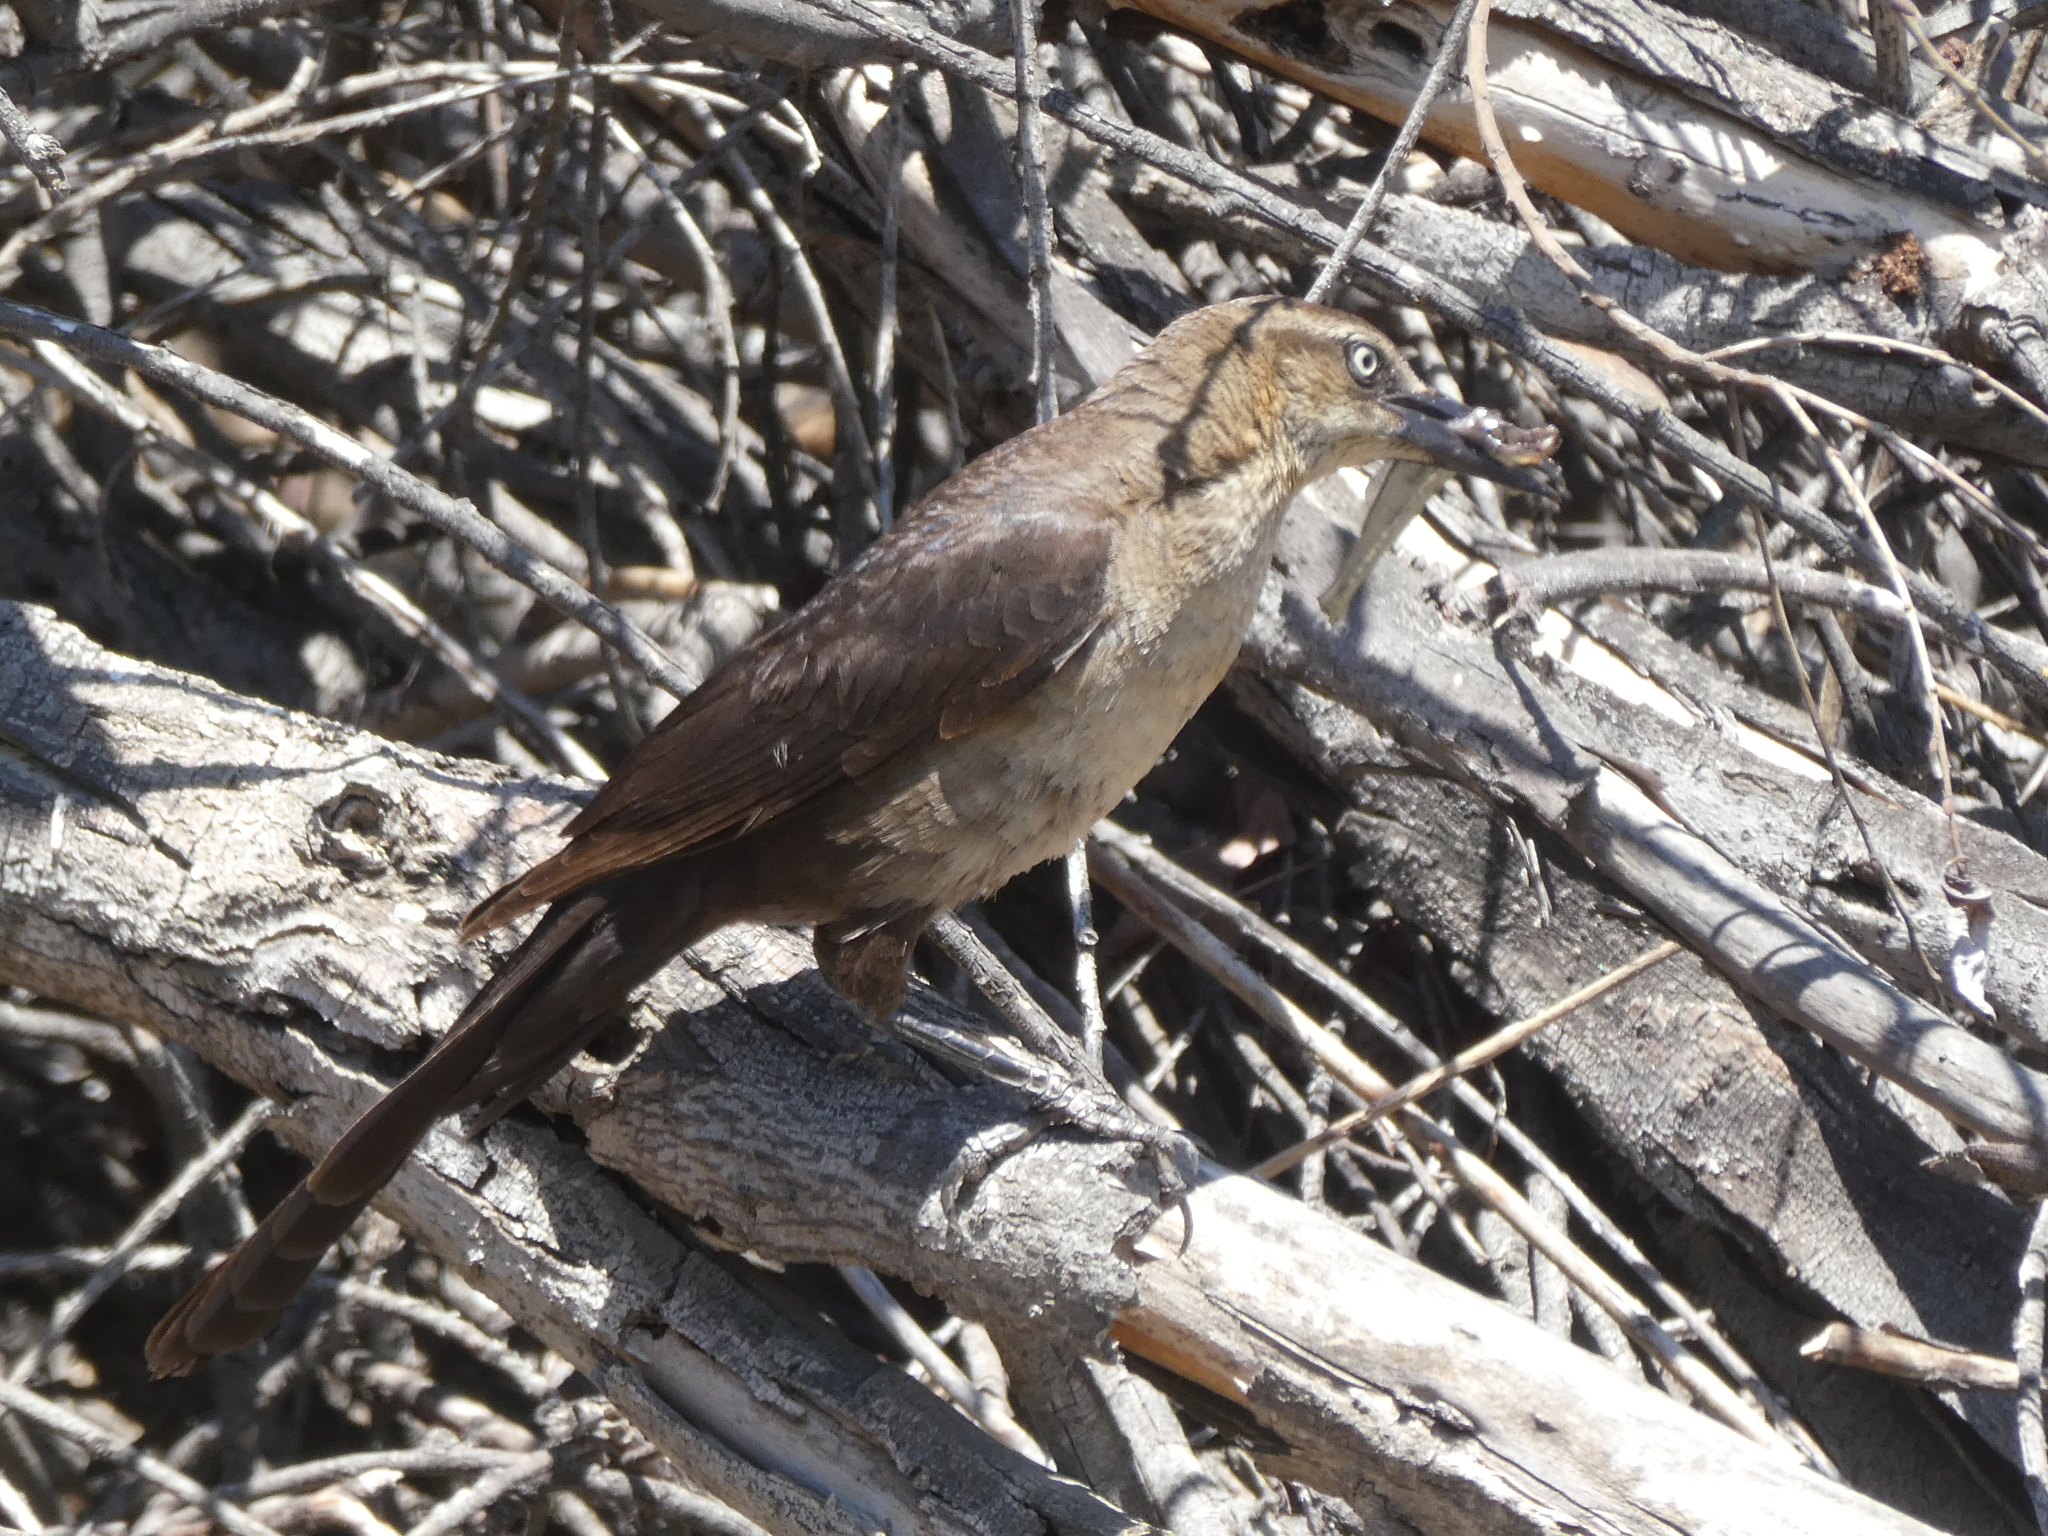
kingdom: Animalia
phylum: Chordata
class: Aves
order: Passeriformes
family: Icteridae
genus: Quiscalus
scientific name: Quiscalus mexicanus
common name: Great-tailed grackle
